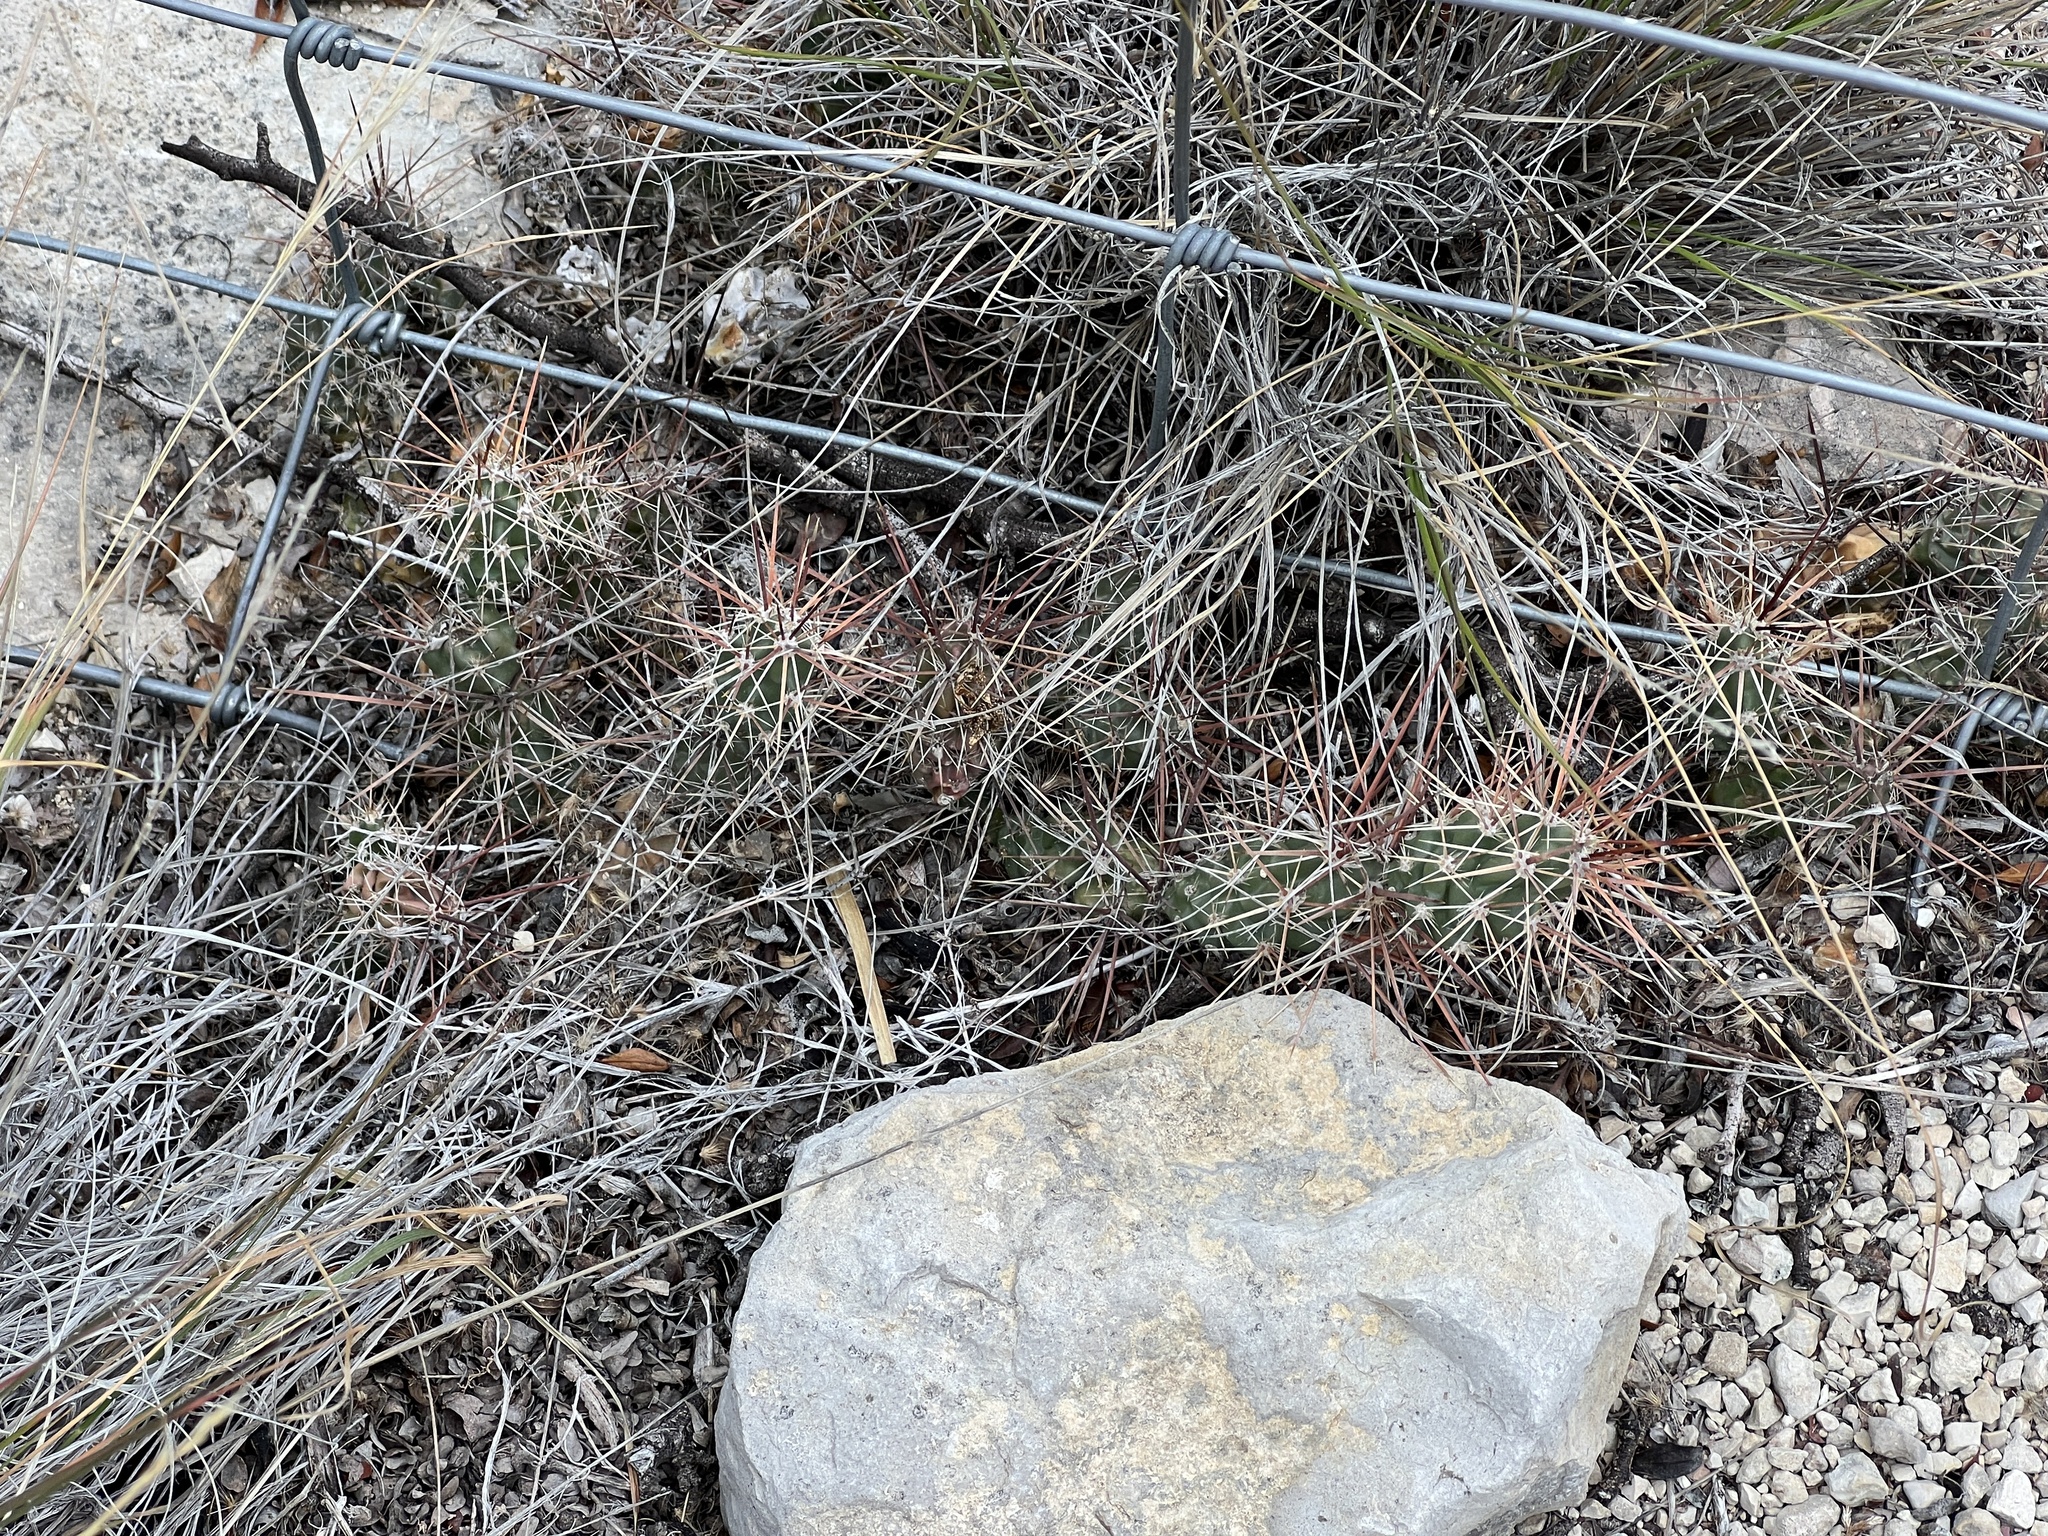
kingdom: Plantae
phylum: Tracheophyta
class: Magnoliopsida
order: Caryophyllales
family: Cactaceae
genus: Grusonia
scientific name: Grusonia schottii
